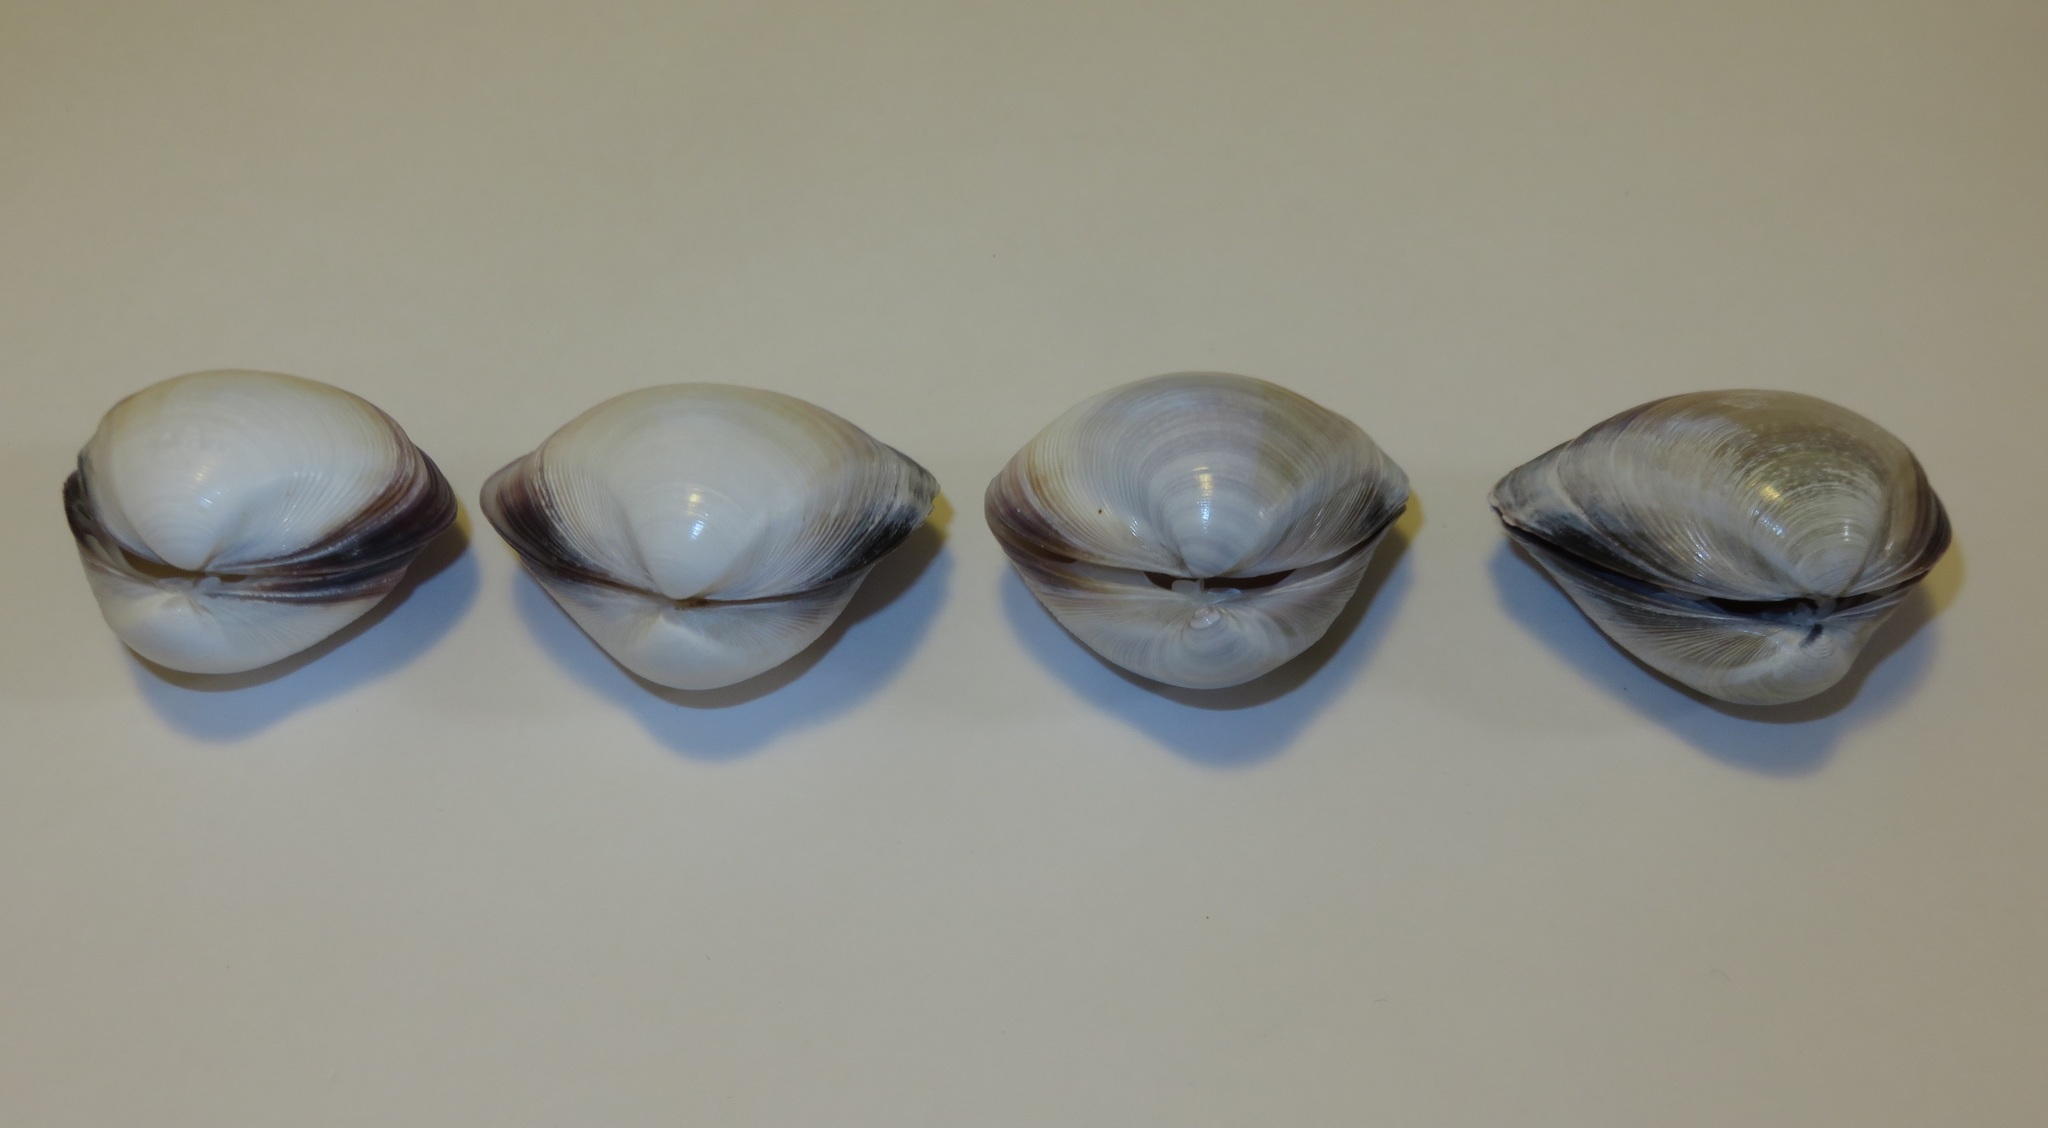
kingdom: Animalia
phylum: Mollusca
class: Bivalvia
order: Venerida
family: Mactridae
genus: Mactra
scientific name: Mactra quadrangularis
